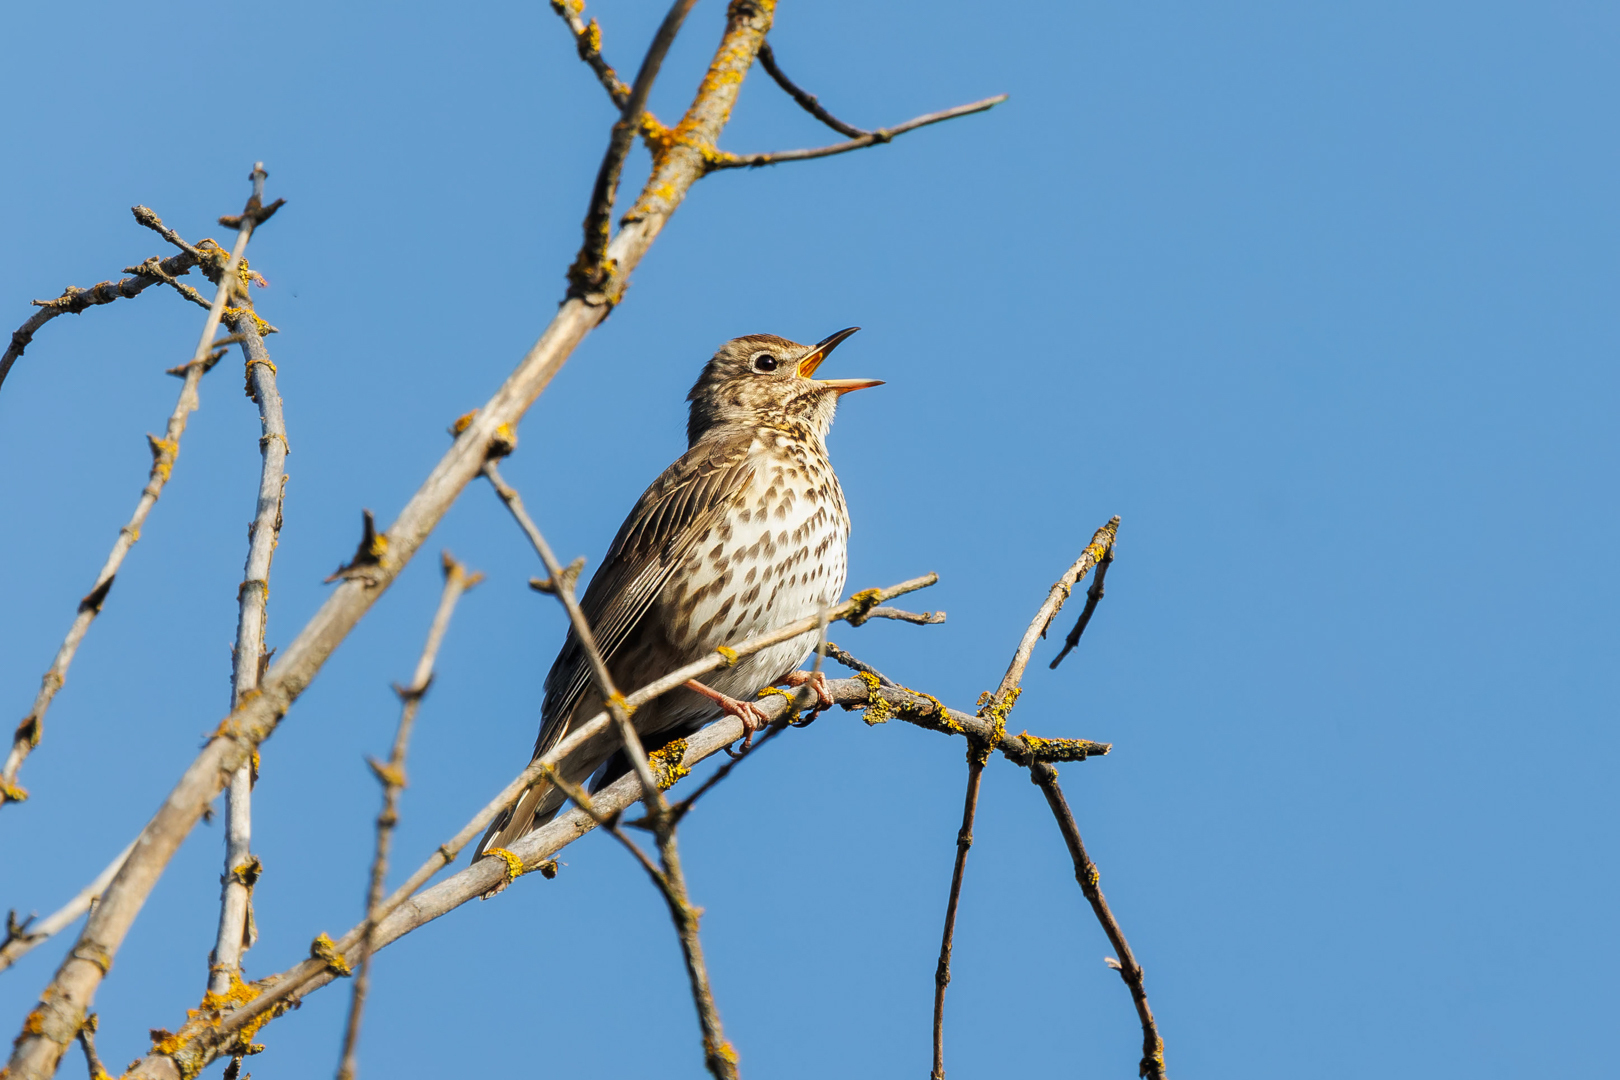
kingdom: Animalia
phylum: Chordata
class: Aves
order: Passeriformes
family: Turdidae
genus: Turdus
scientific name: Turdus philomelos
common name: Song thrush
